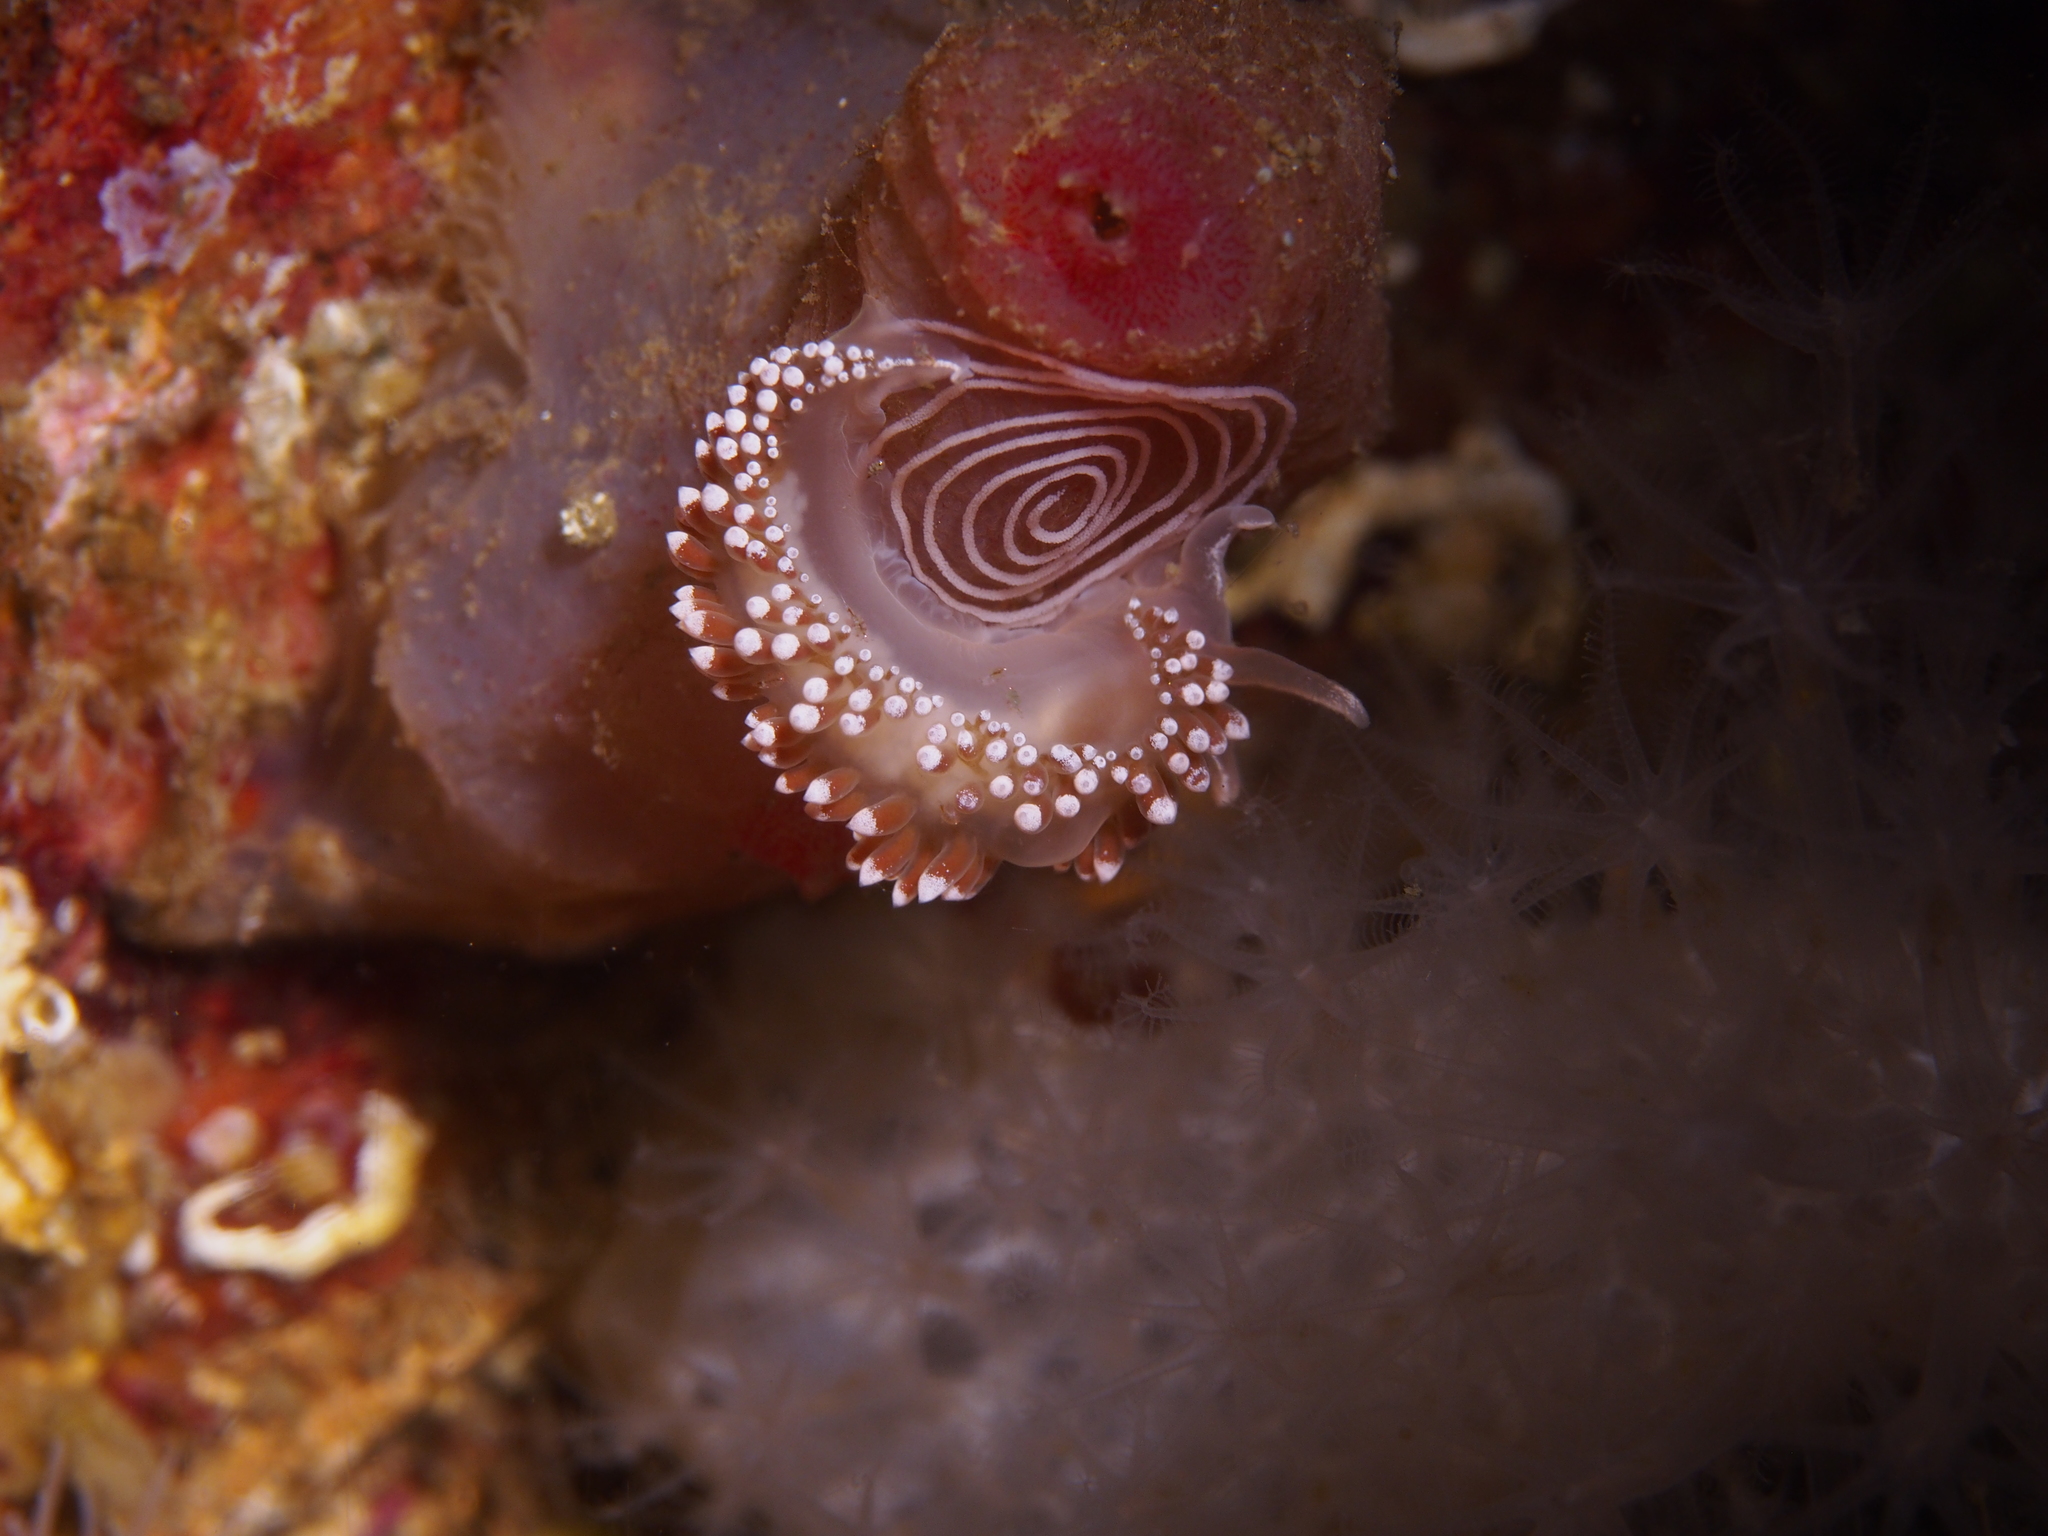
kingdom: Animalia
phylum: Mollusca
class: Gastropoda
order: Nudibranchia
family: Coryphellidae
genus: Coryphella
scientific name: Coryphella verrucosa
